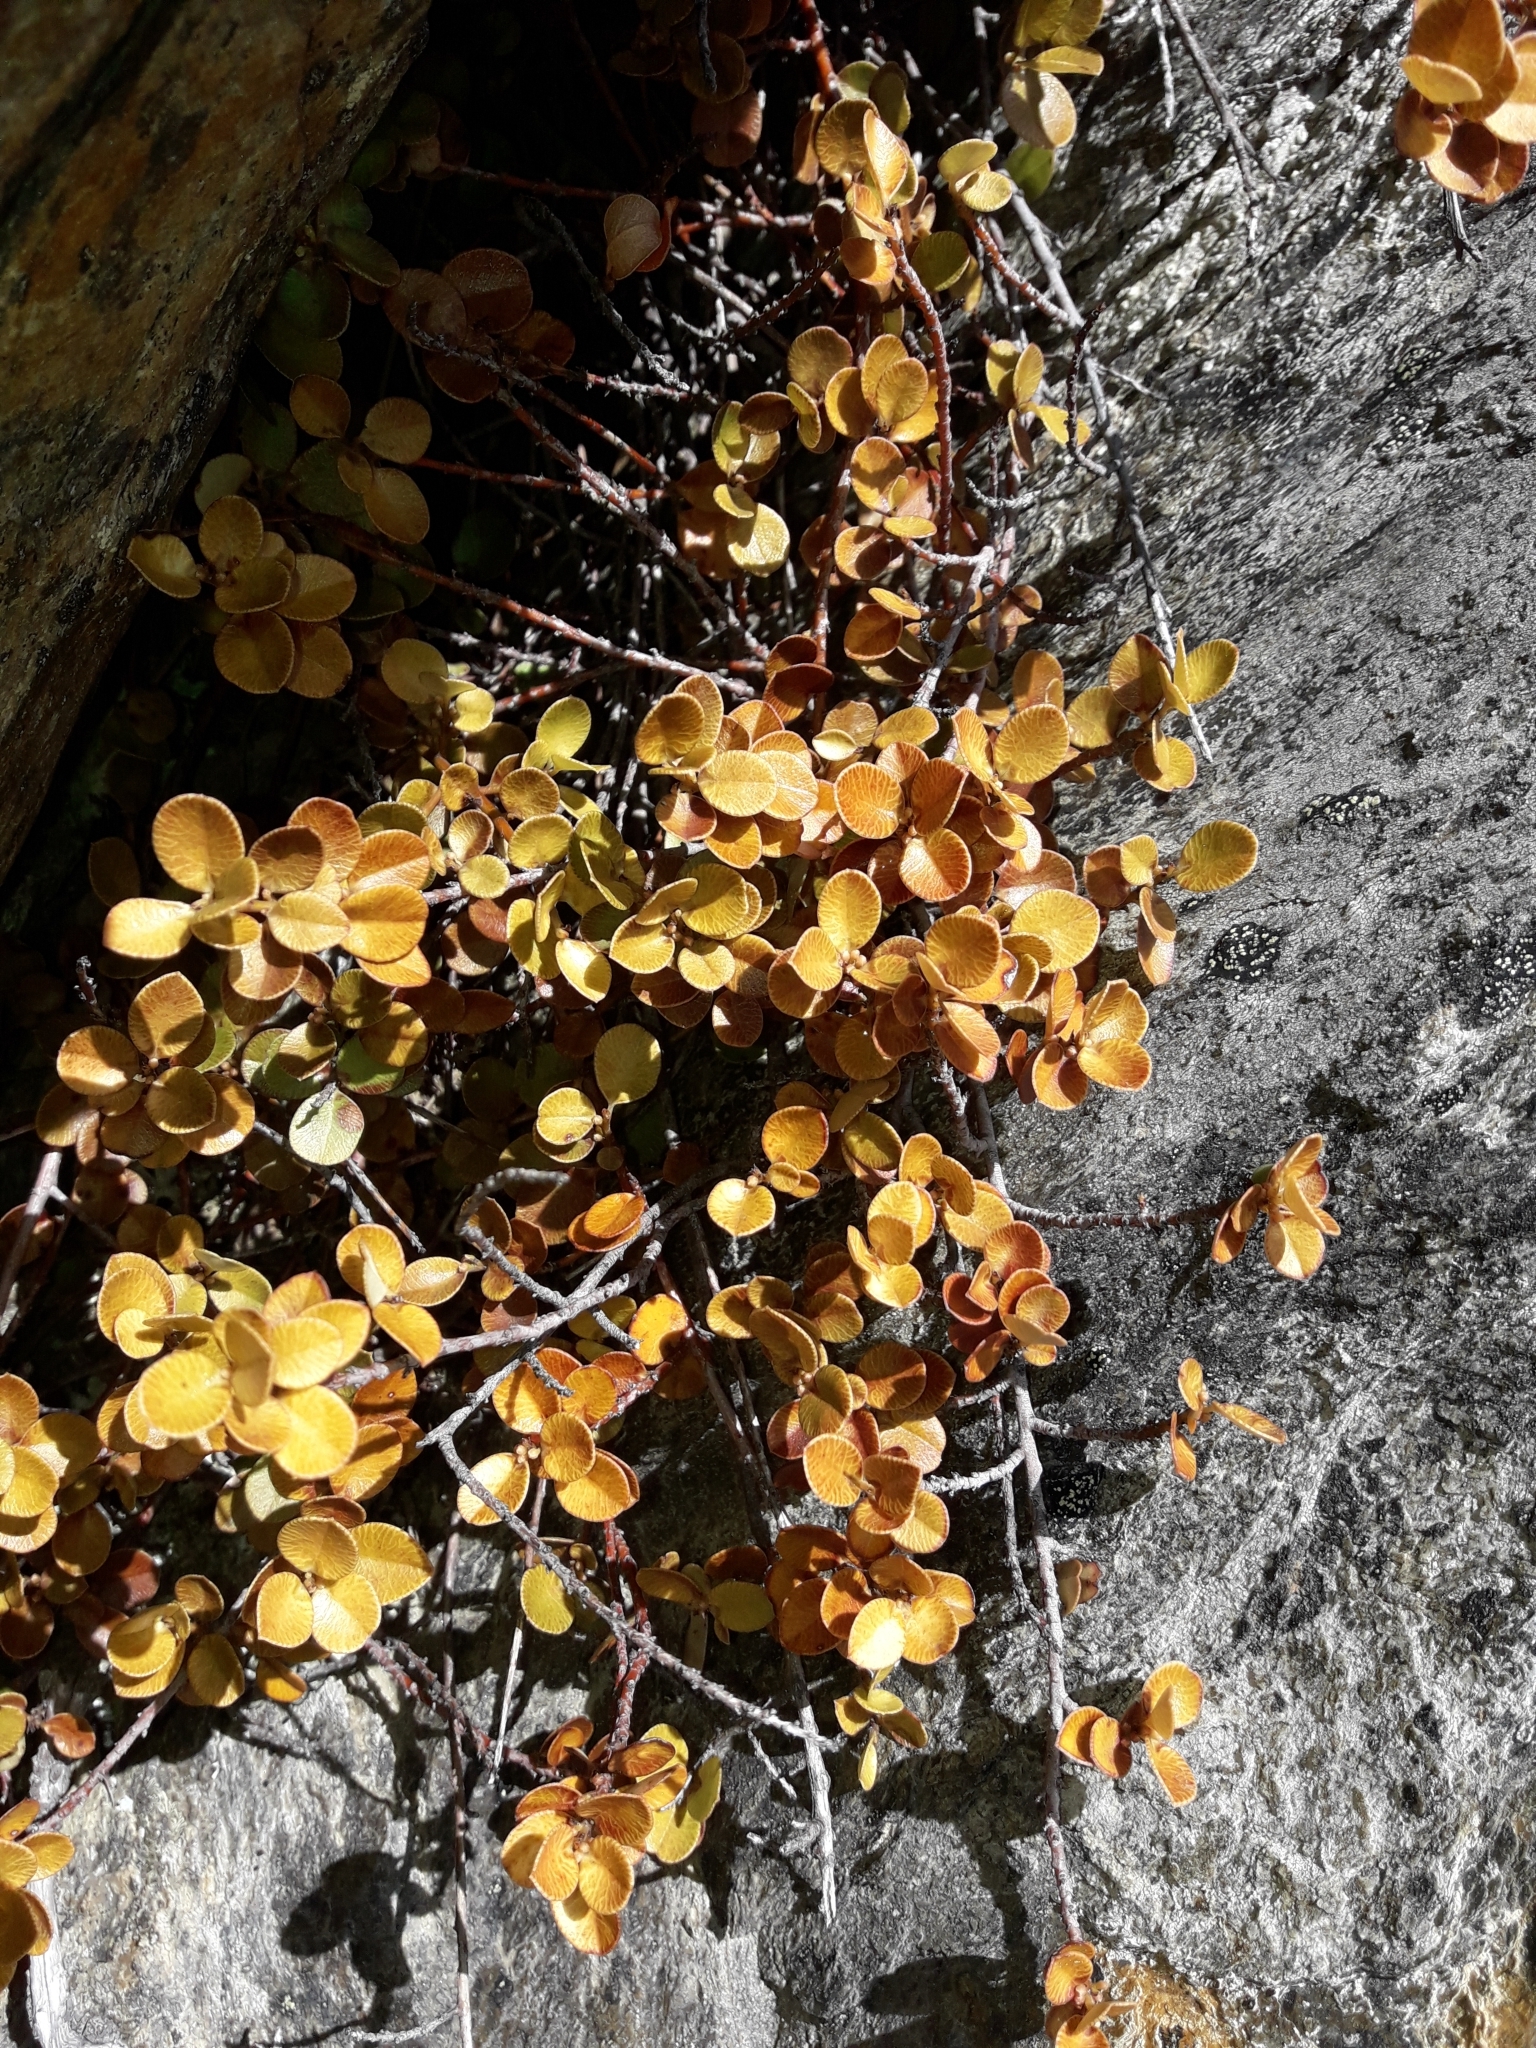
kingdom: Plantae
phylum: Tracheophyta
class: Magnoliopsida
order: Ericales
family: Primulaceae
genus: Myrsine
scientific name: Myrsine nummularia
